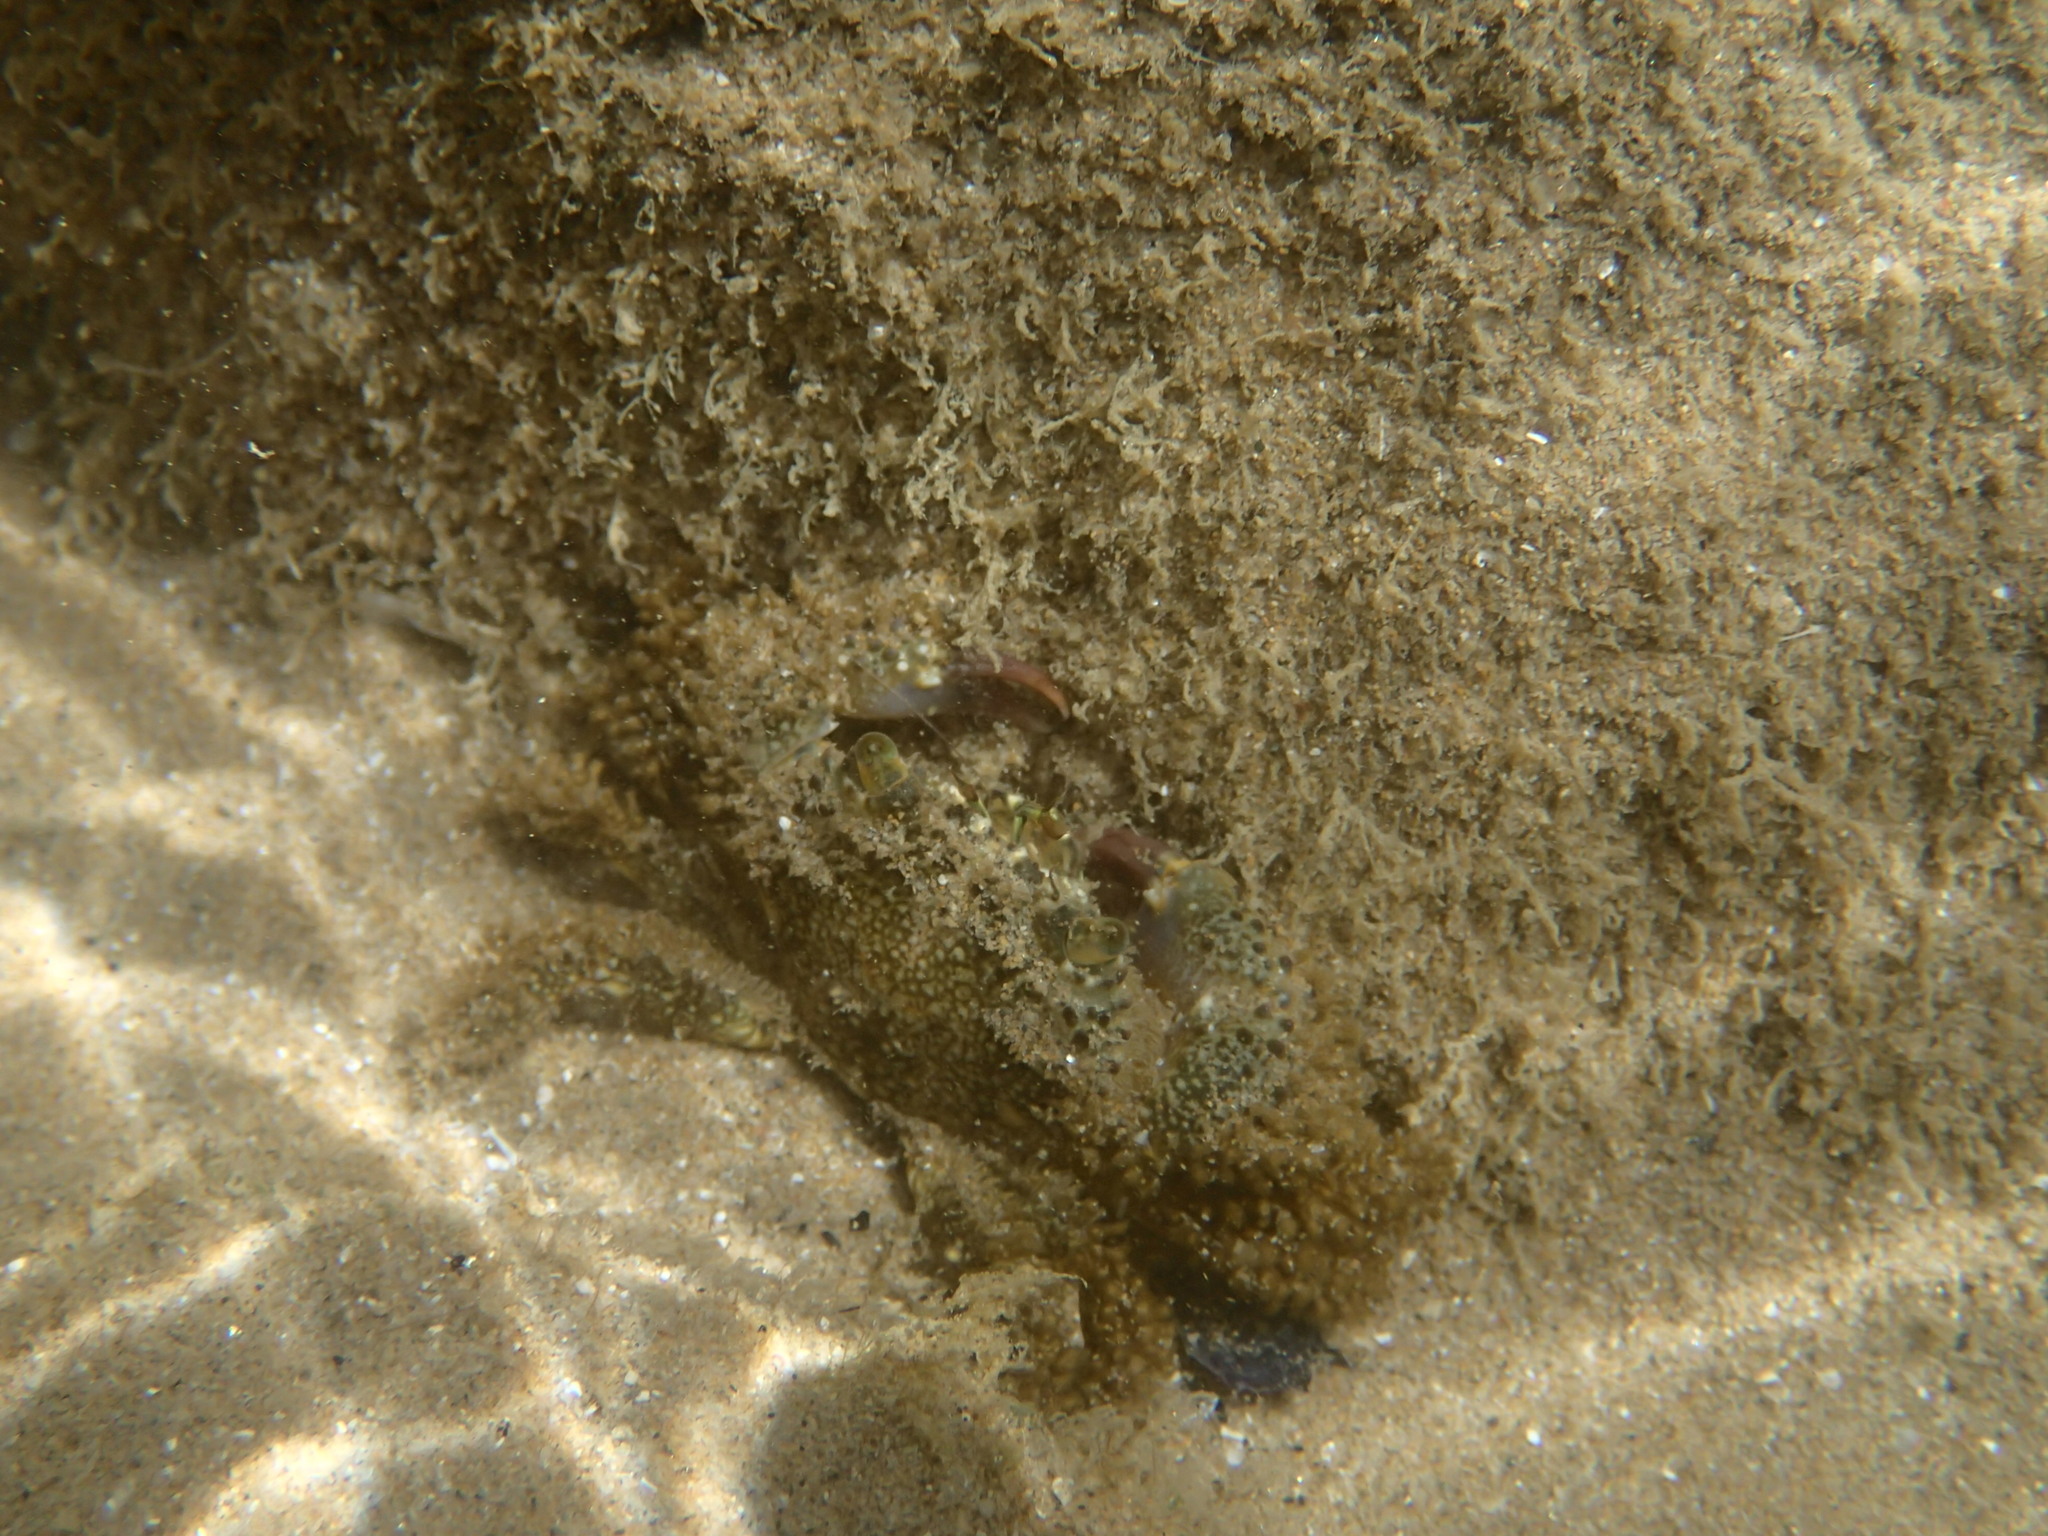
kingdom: Animalia
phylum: Arthropoda
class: Malacostraca
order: Decapoda
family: Eriphiidae
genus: Eriphia
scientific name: Eriphia verrucosa
